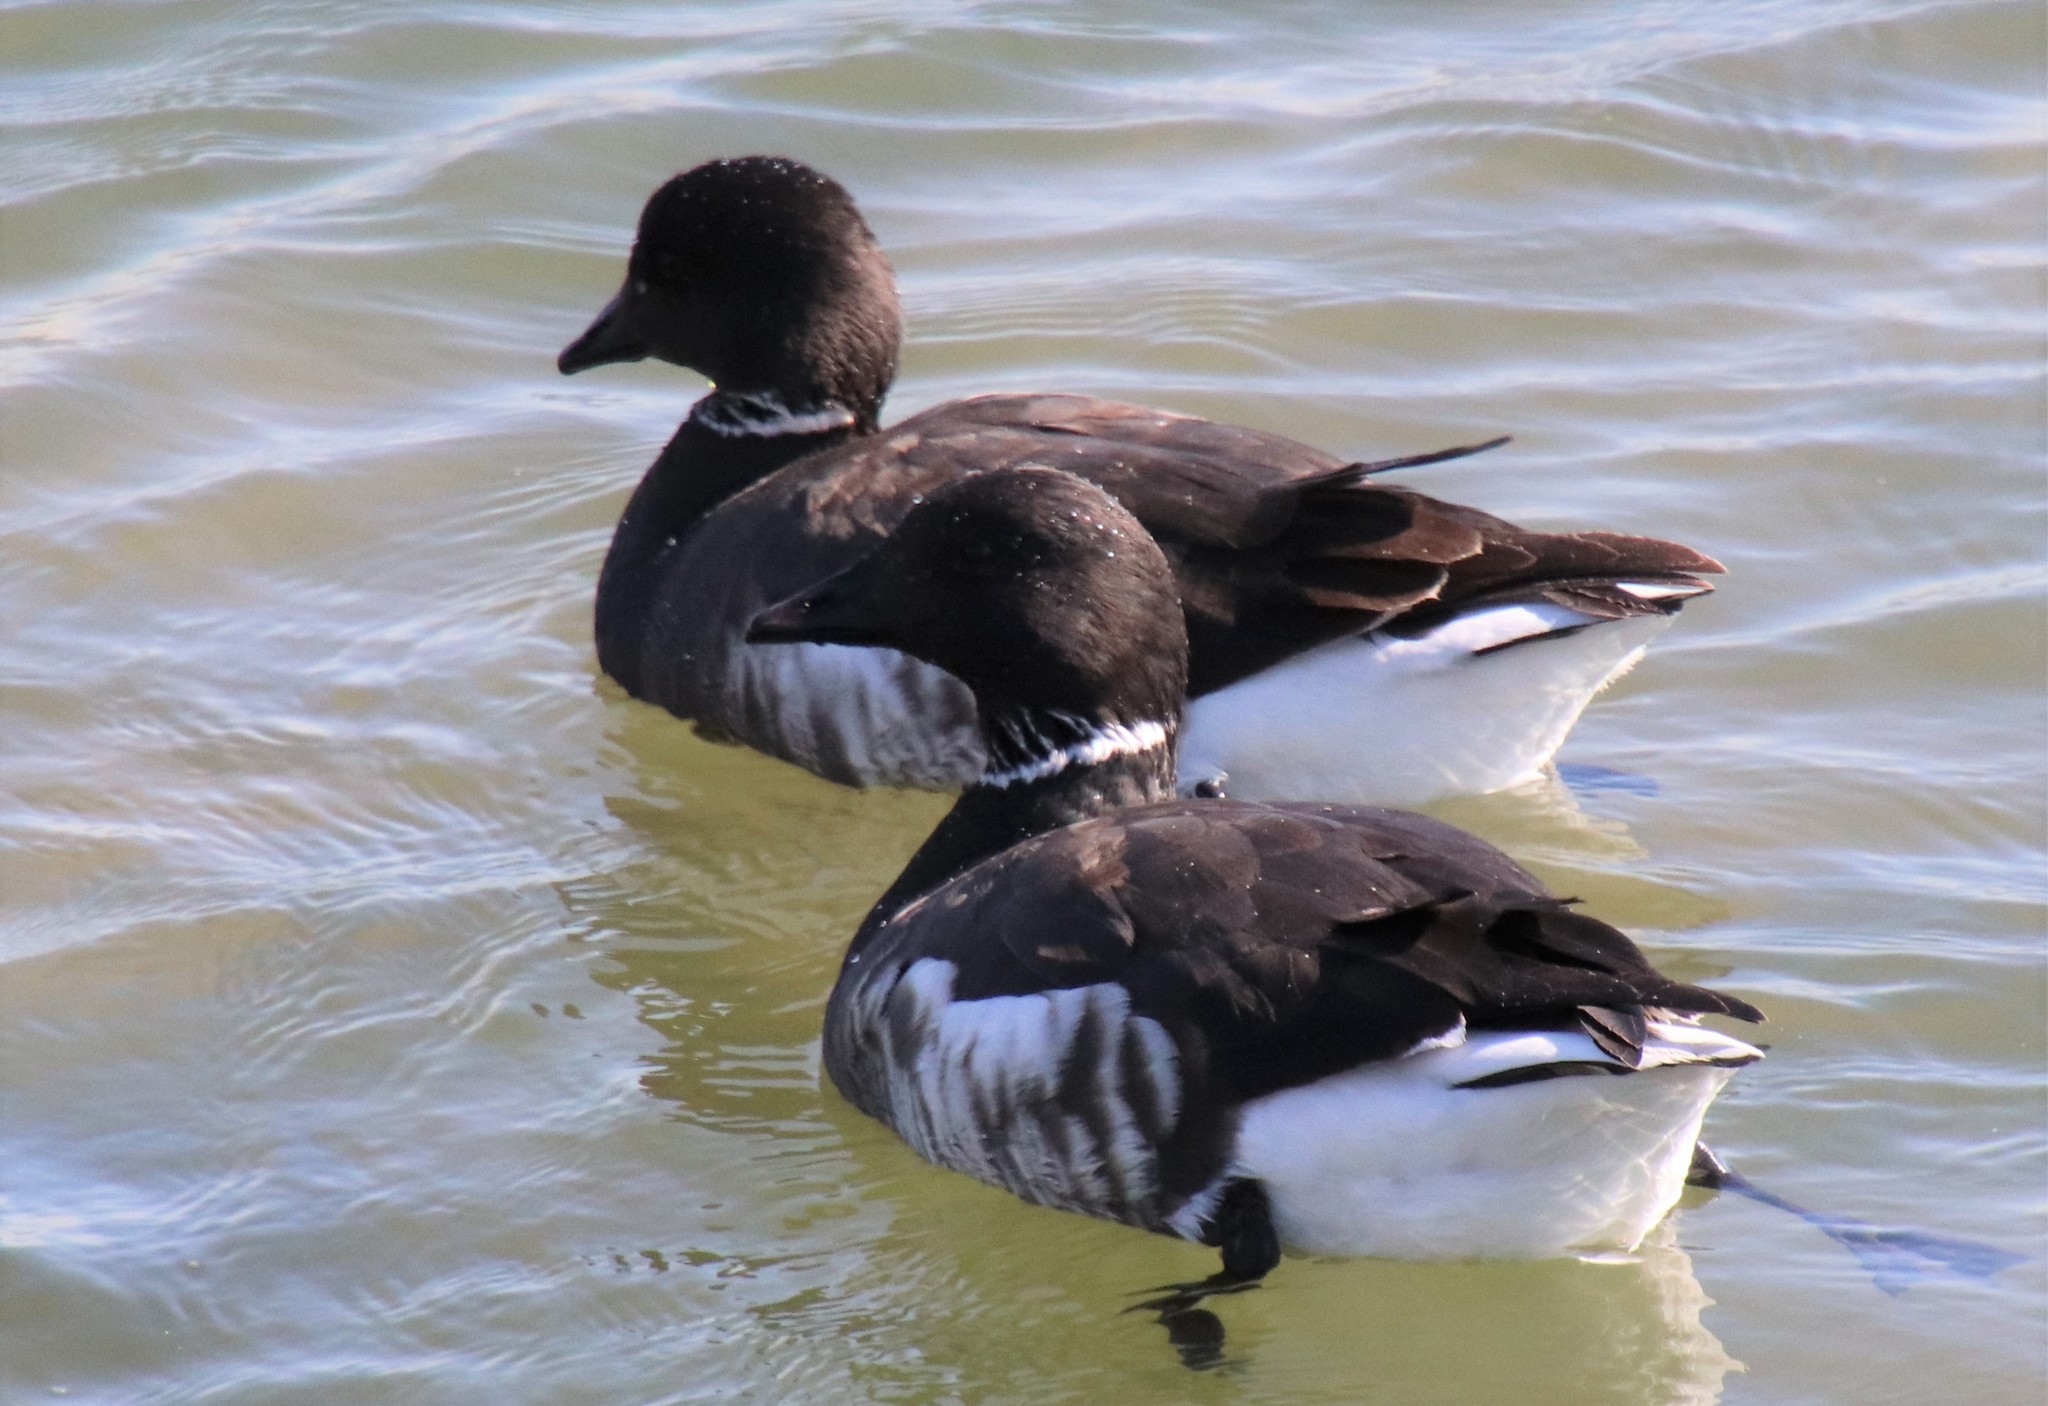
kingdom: Animalia
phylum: Chordata
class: Aves
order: Anseriformes
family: Anatidae
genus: Branta
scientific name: Branta bernicla
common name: Brant goose
